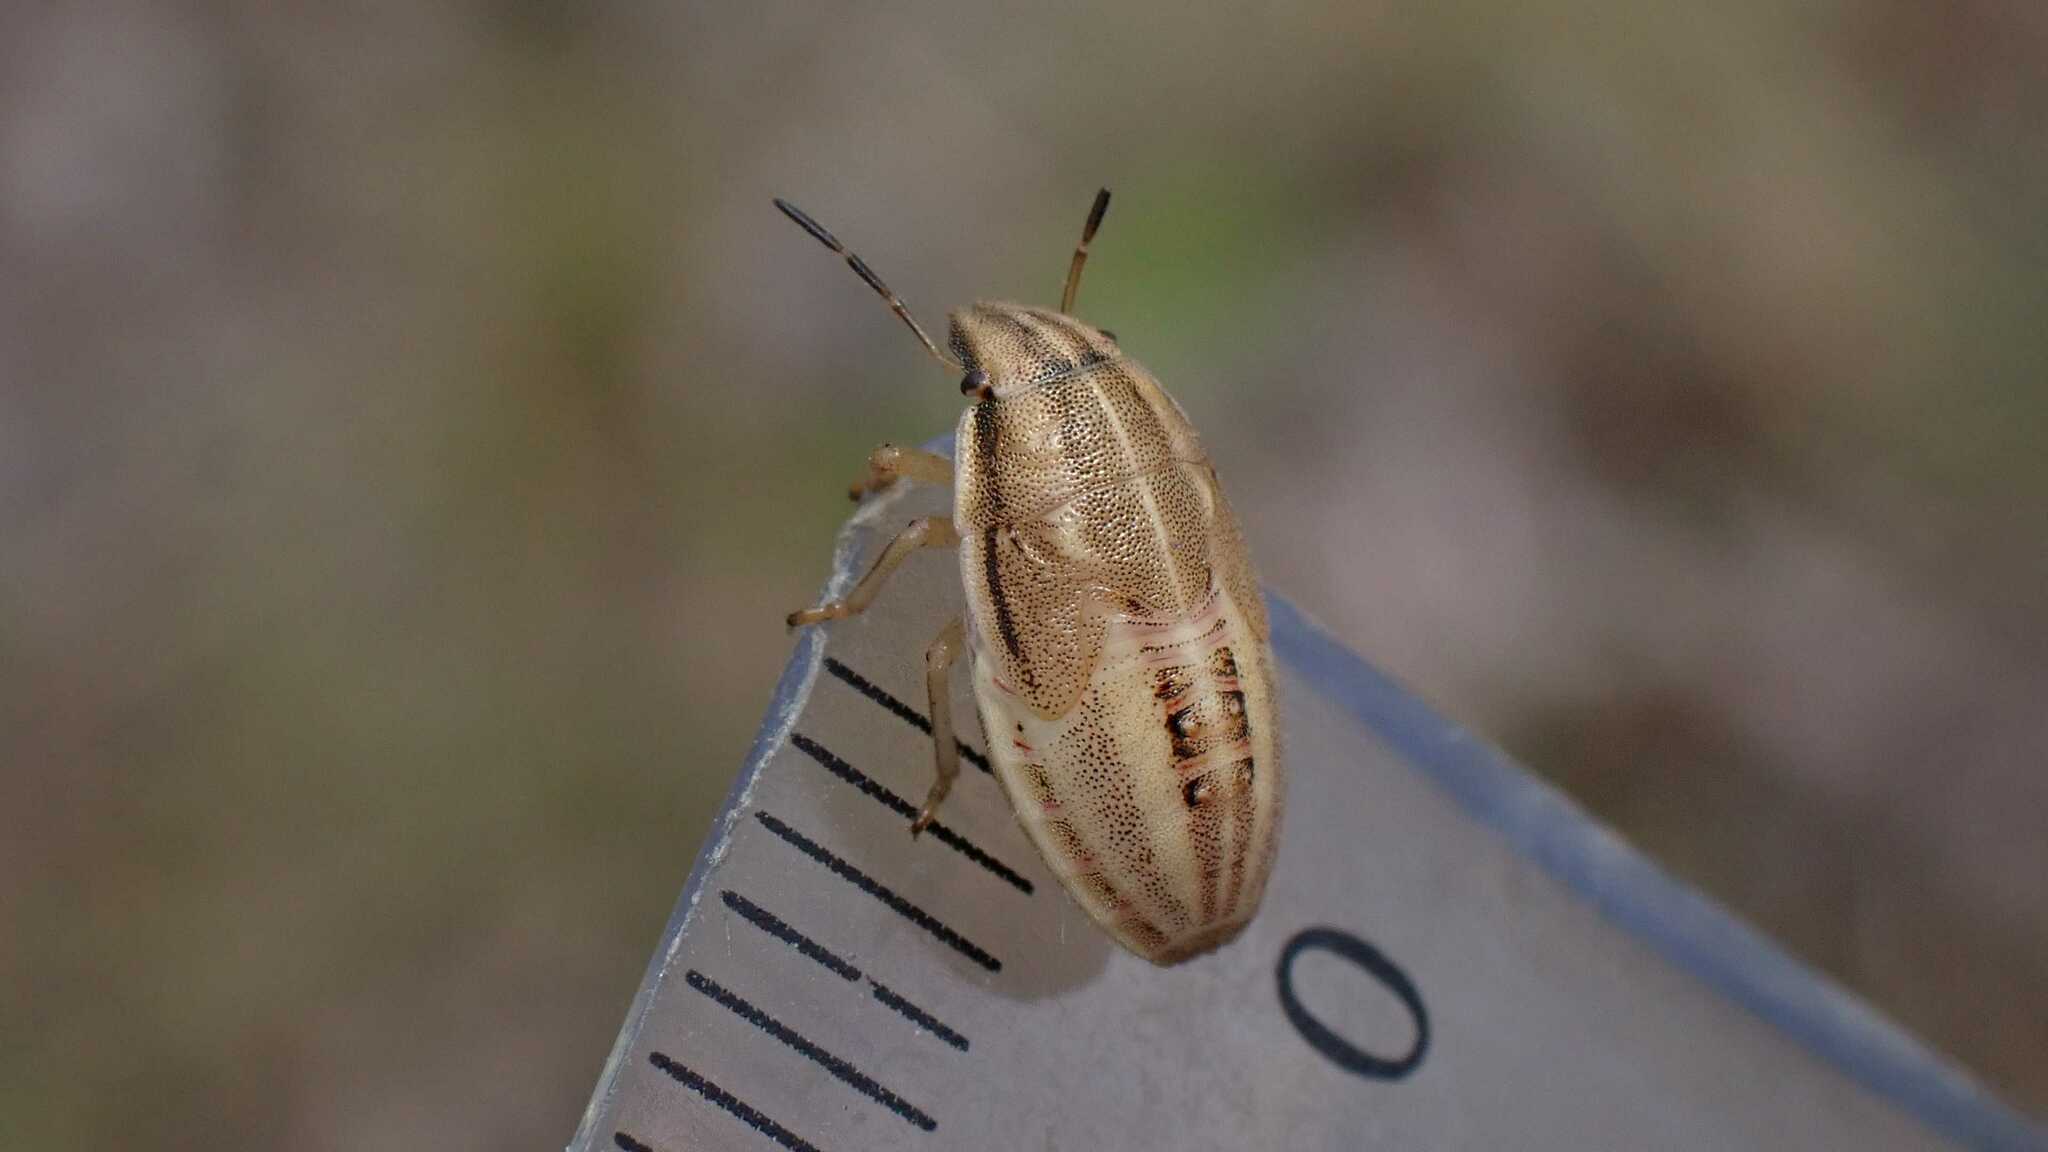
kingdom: Animalia
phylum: Arthropoda
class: Insecta
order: Hemiptera
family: Pentatomidae
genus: Aelia
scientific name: Aelia acuminata
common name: Bishop's mitre
